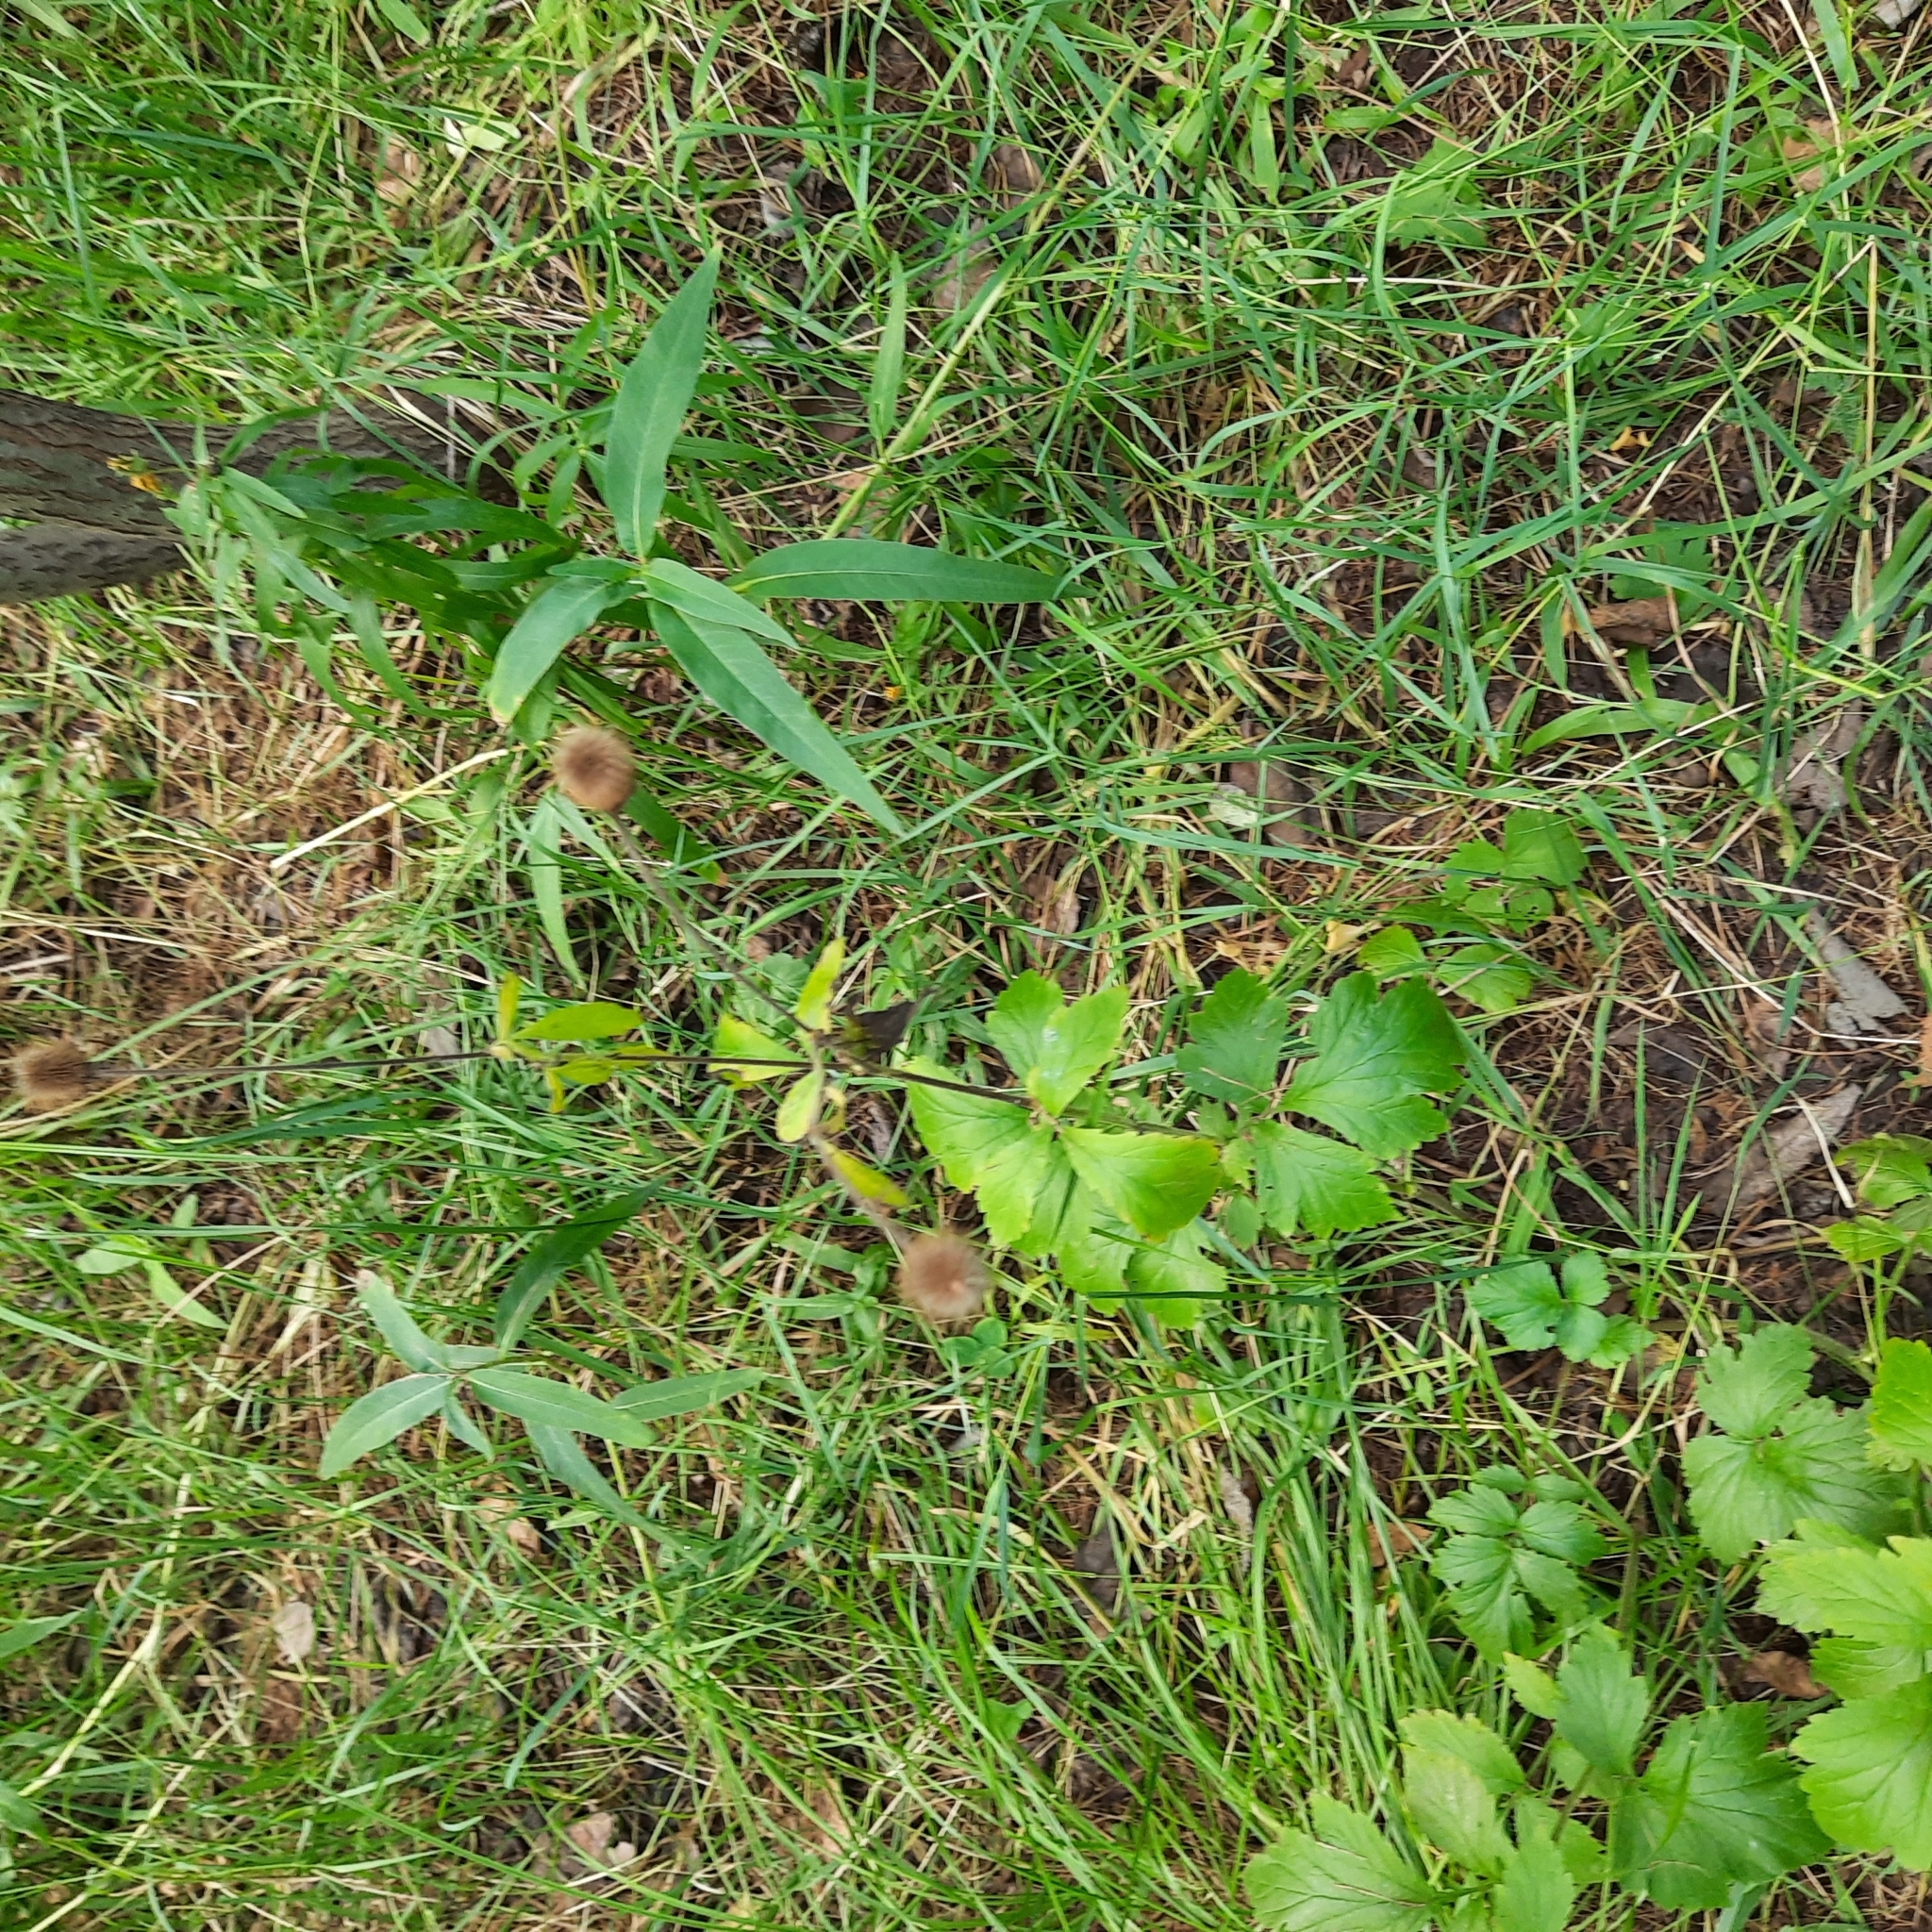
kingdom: Plantae
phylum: Tracheophyta
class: Magnoliopsida
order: Rosales
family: Rosaceae
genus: Geum
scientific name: Geum aleppicum
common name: Yellow avens
